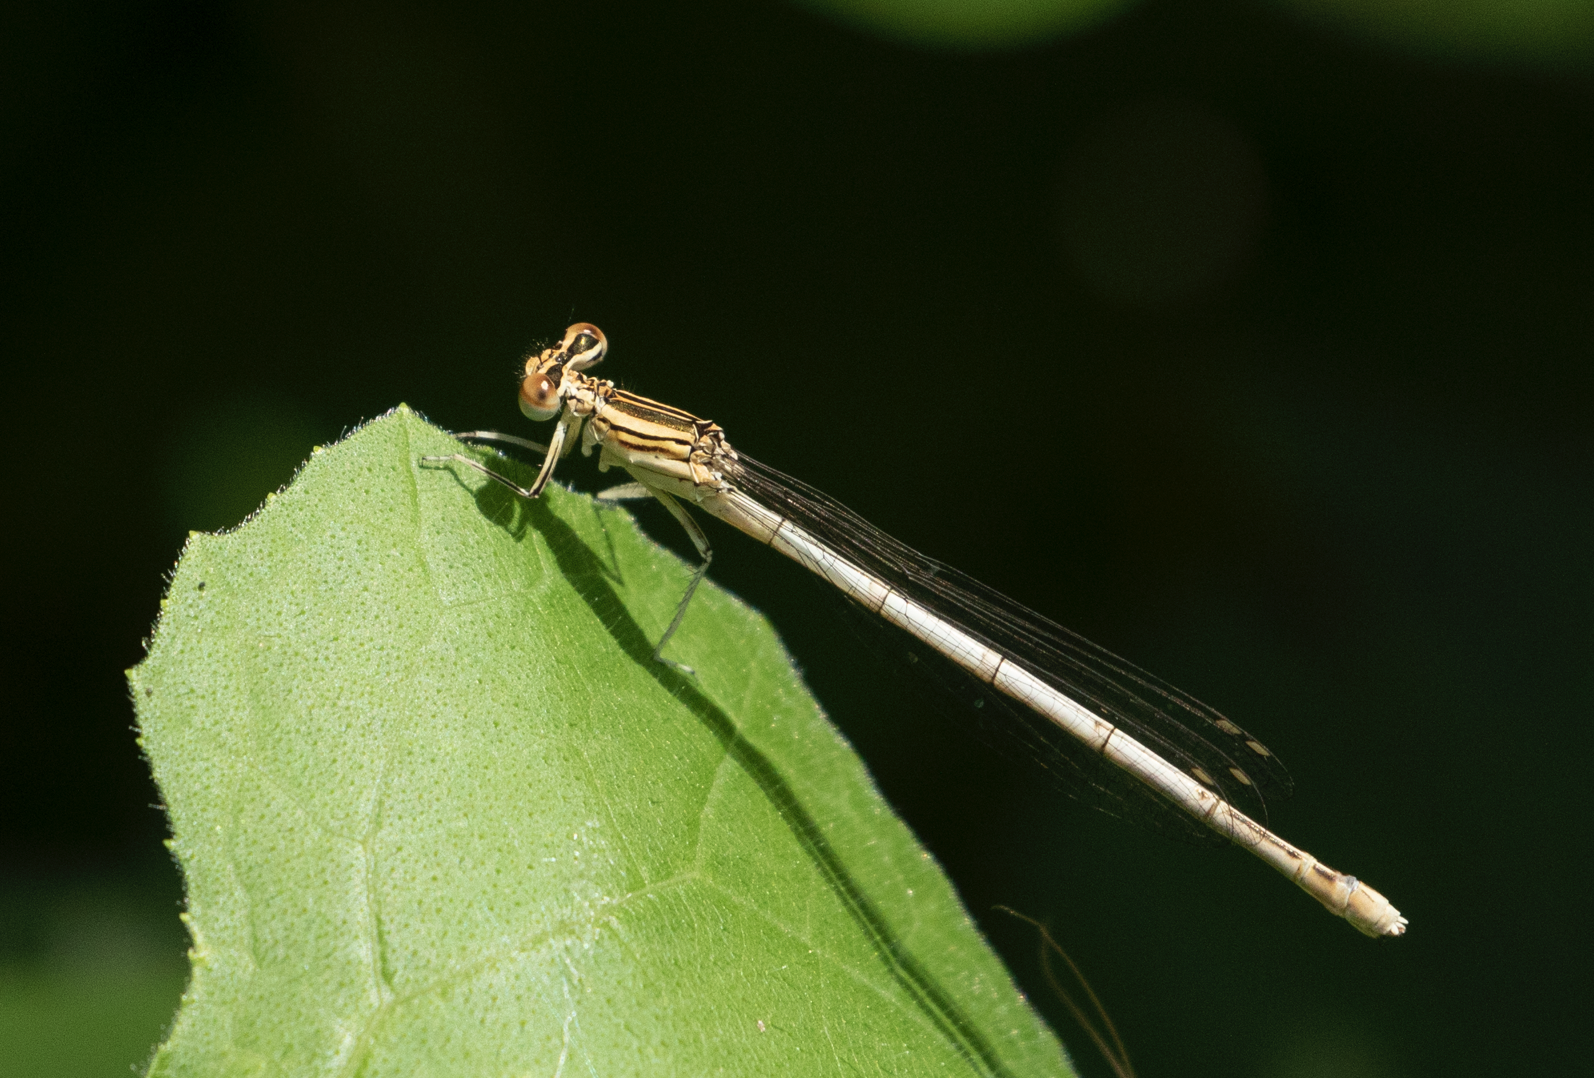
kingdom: Animalia
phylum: Arthropoda
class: Insecta
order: Odonata
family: Platycnemididae
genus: Platycnemis
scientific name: Platycnemis pennipes
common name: White-legged damselfly
